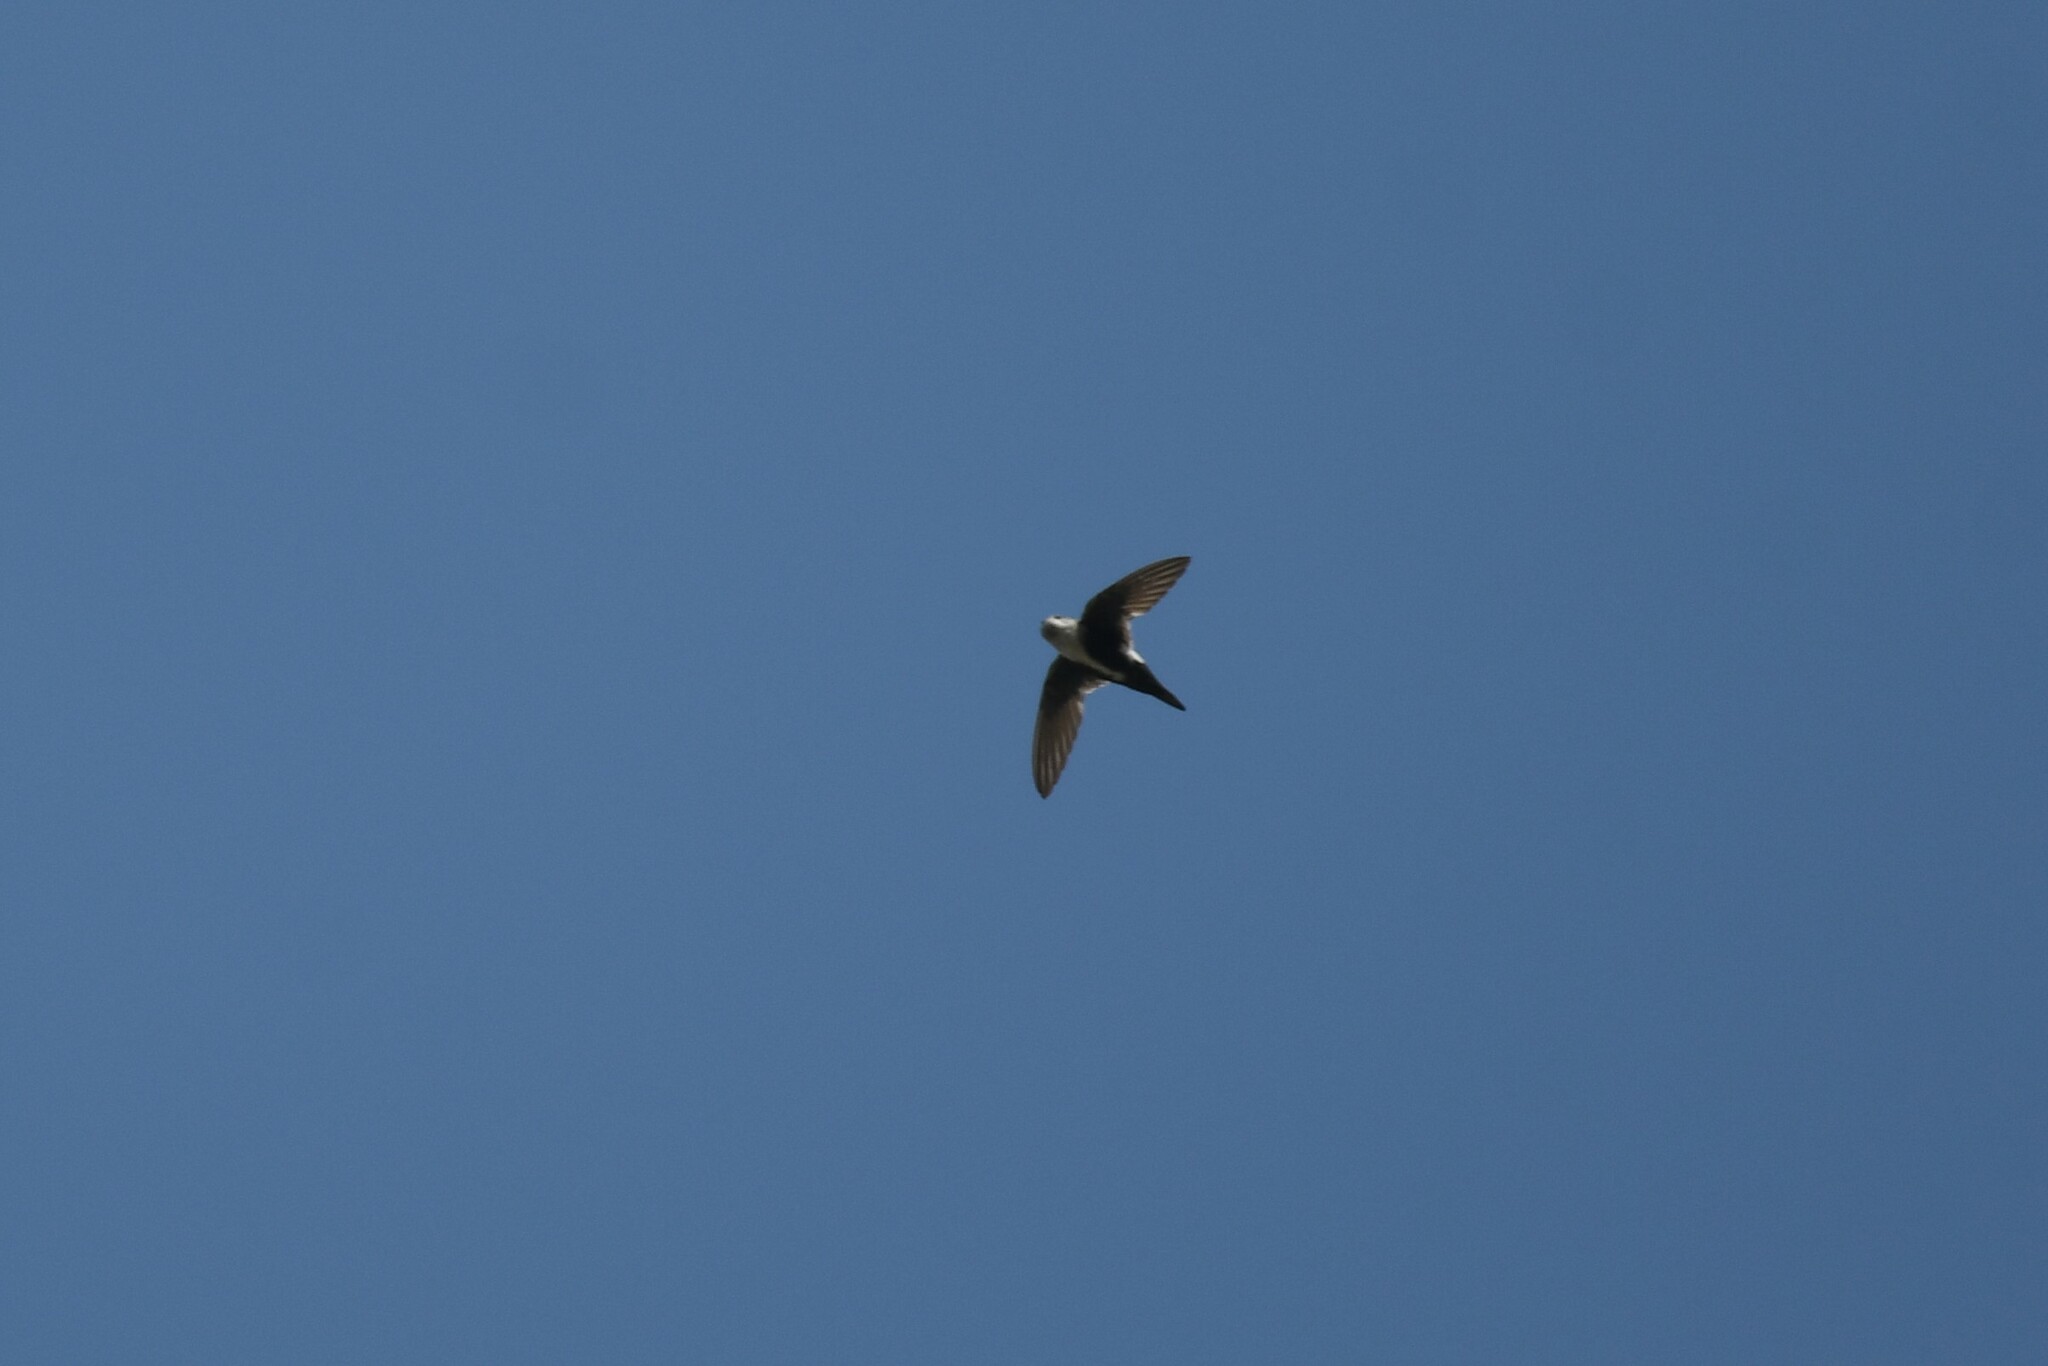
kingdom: Animalia
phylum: Chordata
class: Aves
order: Apodiformes
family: Apodidae
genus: Aeronautes
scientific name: Aeronautes saxatalis
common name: White-throated swift
